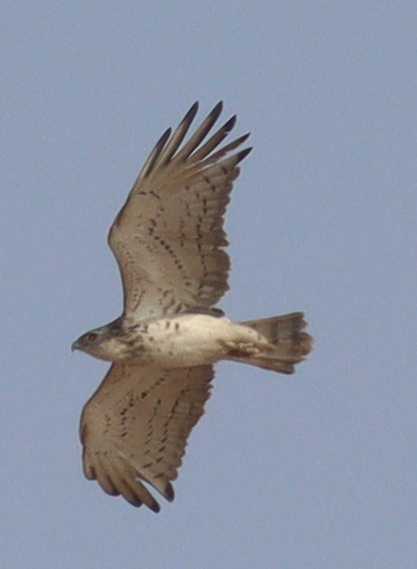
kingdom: Animalia
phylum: Chordata
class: Aves
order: Accipitriformes
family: Accipitridae
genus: Circaetus
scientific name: Circaetus gallicus
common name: Short-toed snake eagle
